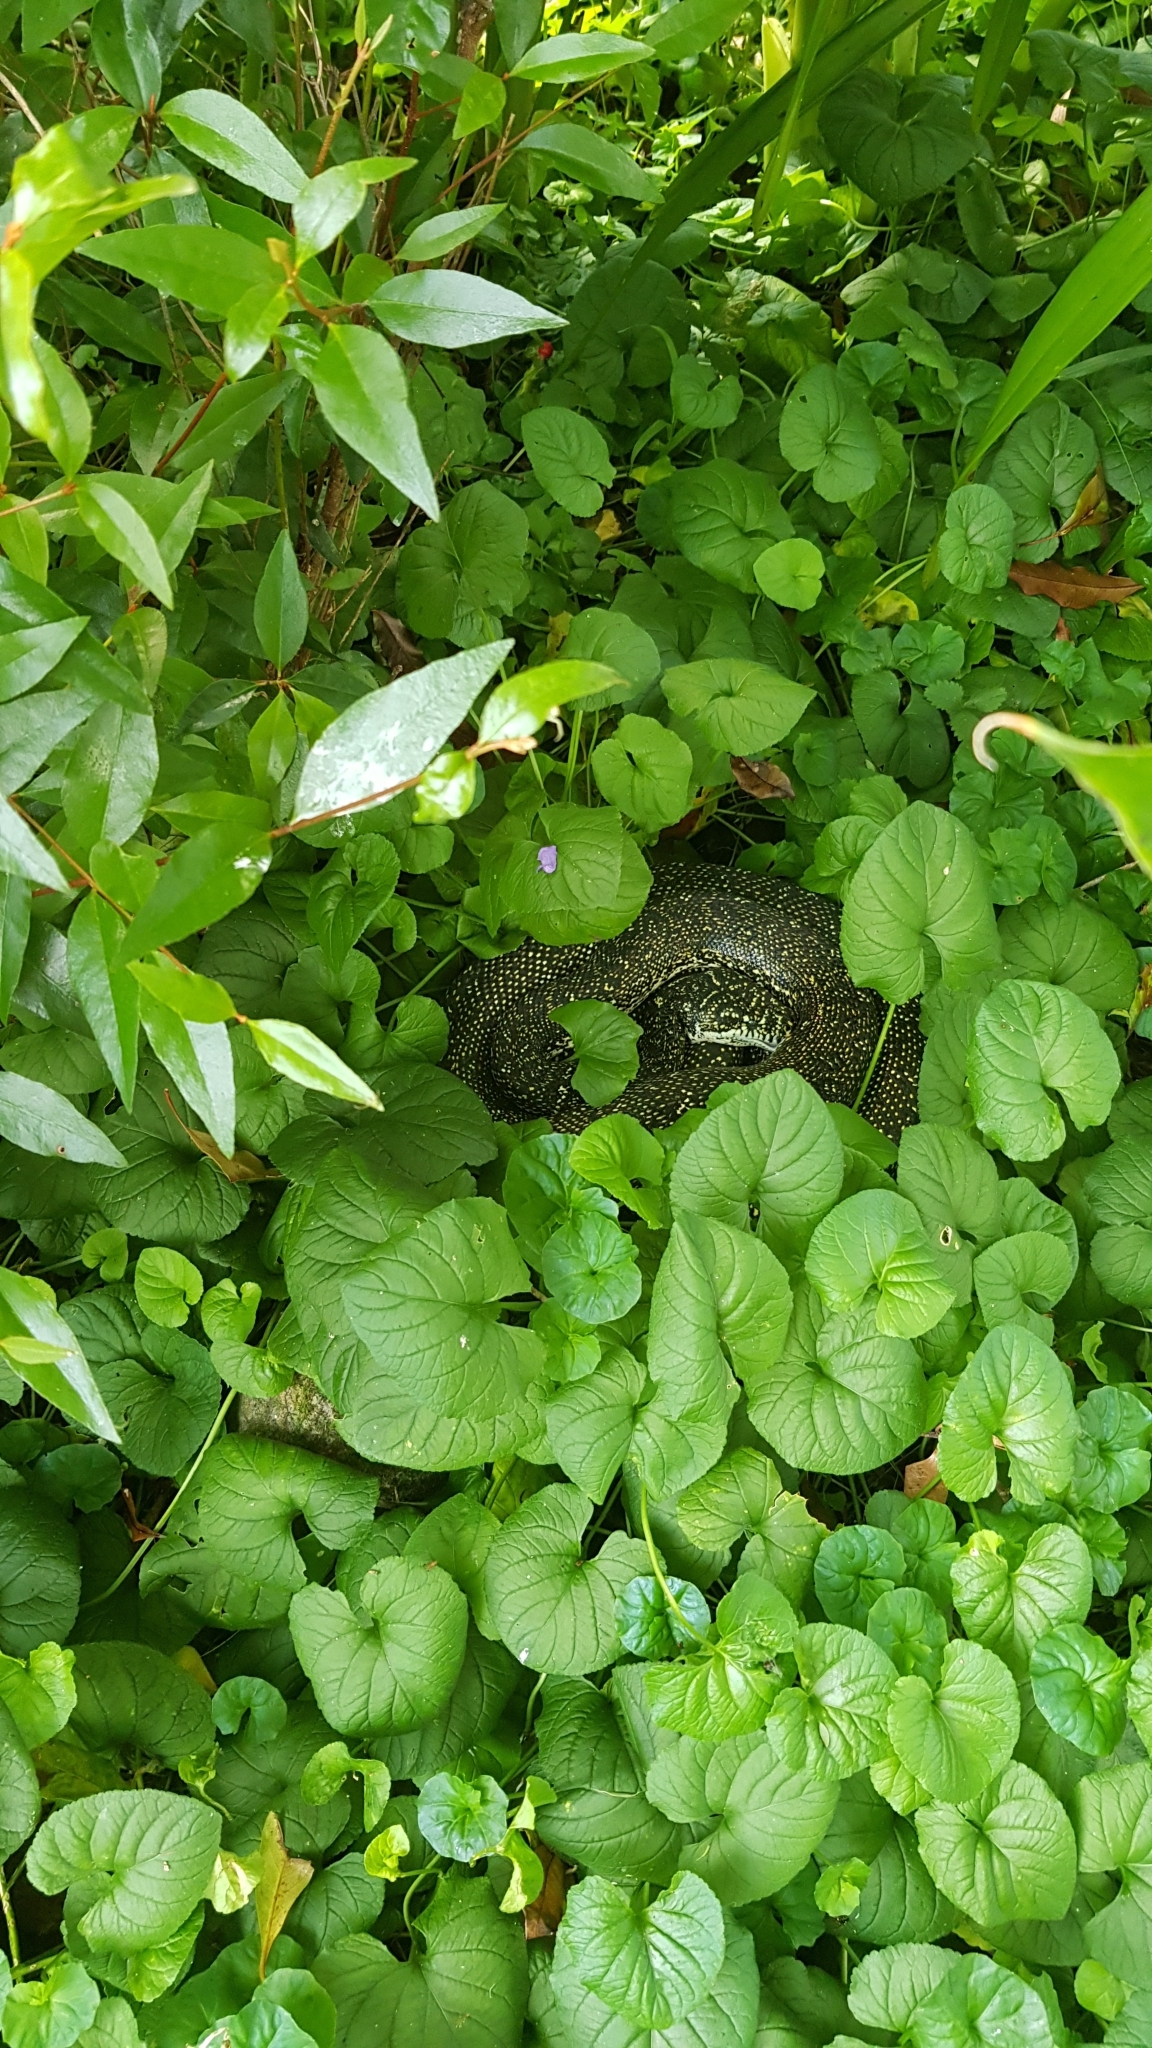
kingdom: Animalia
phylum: Chordata
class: Squamata
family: Pythonidae
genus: Morelia
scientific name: Morelia spilota
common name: Carpet python
